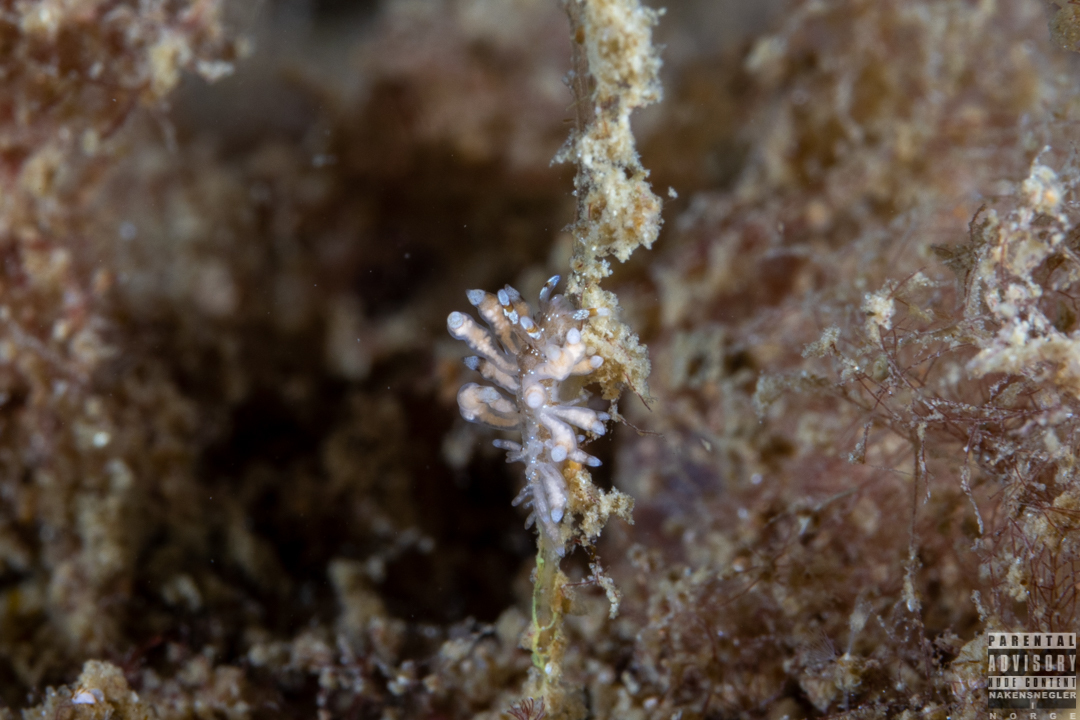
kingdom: Animalia
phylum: Mollusca
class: Gastropoda
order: Nudibranchia
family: Eubranchidae
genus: Eubranchus
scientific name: Eubranchus rupium
